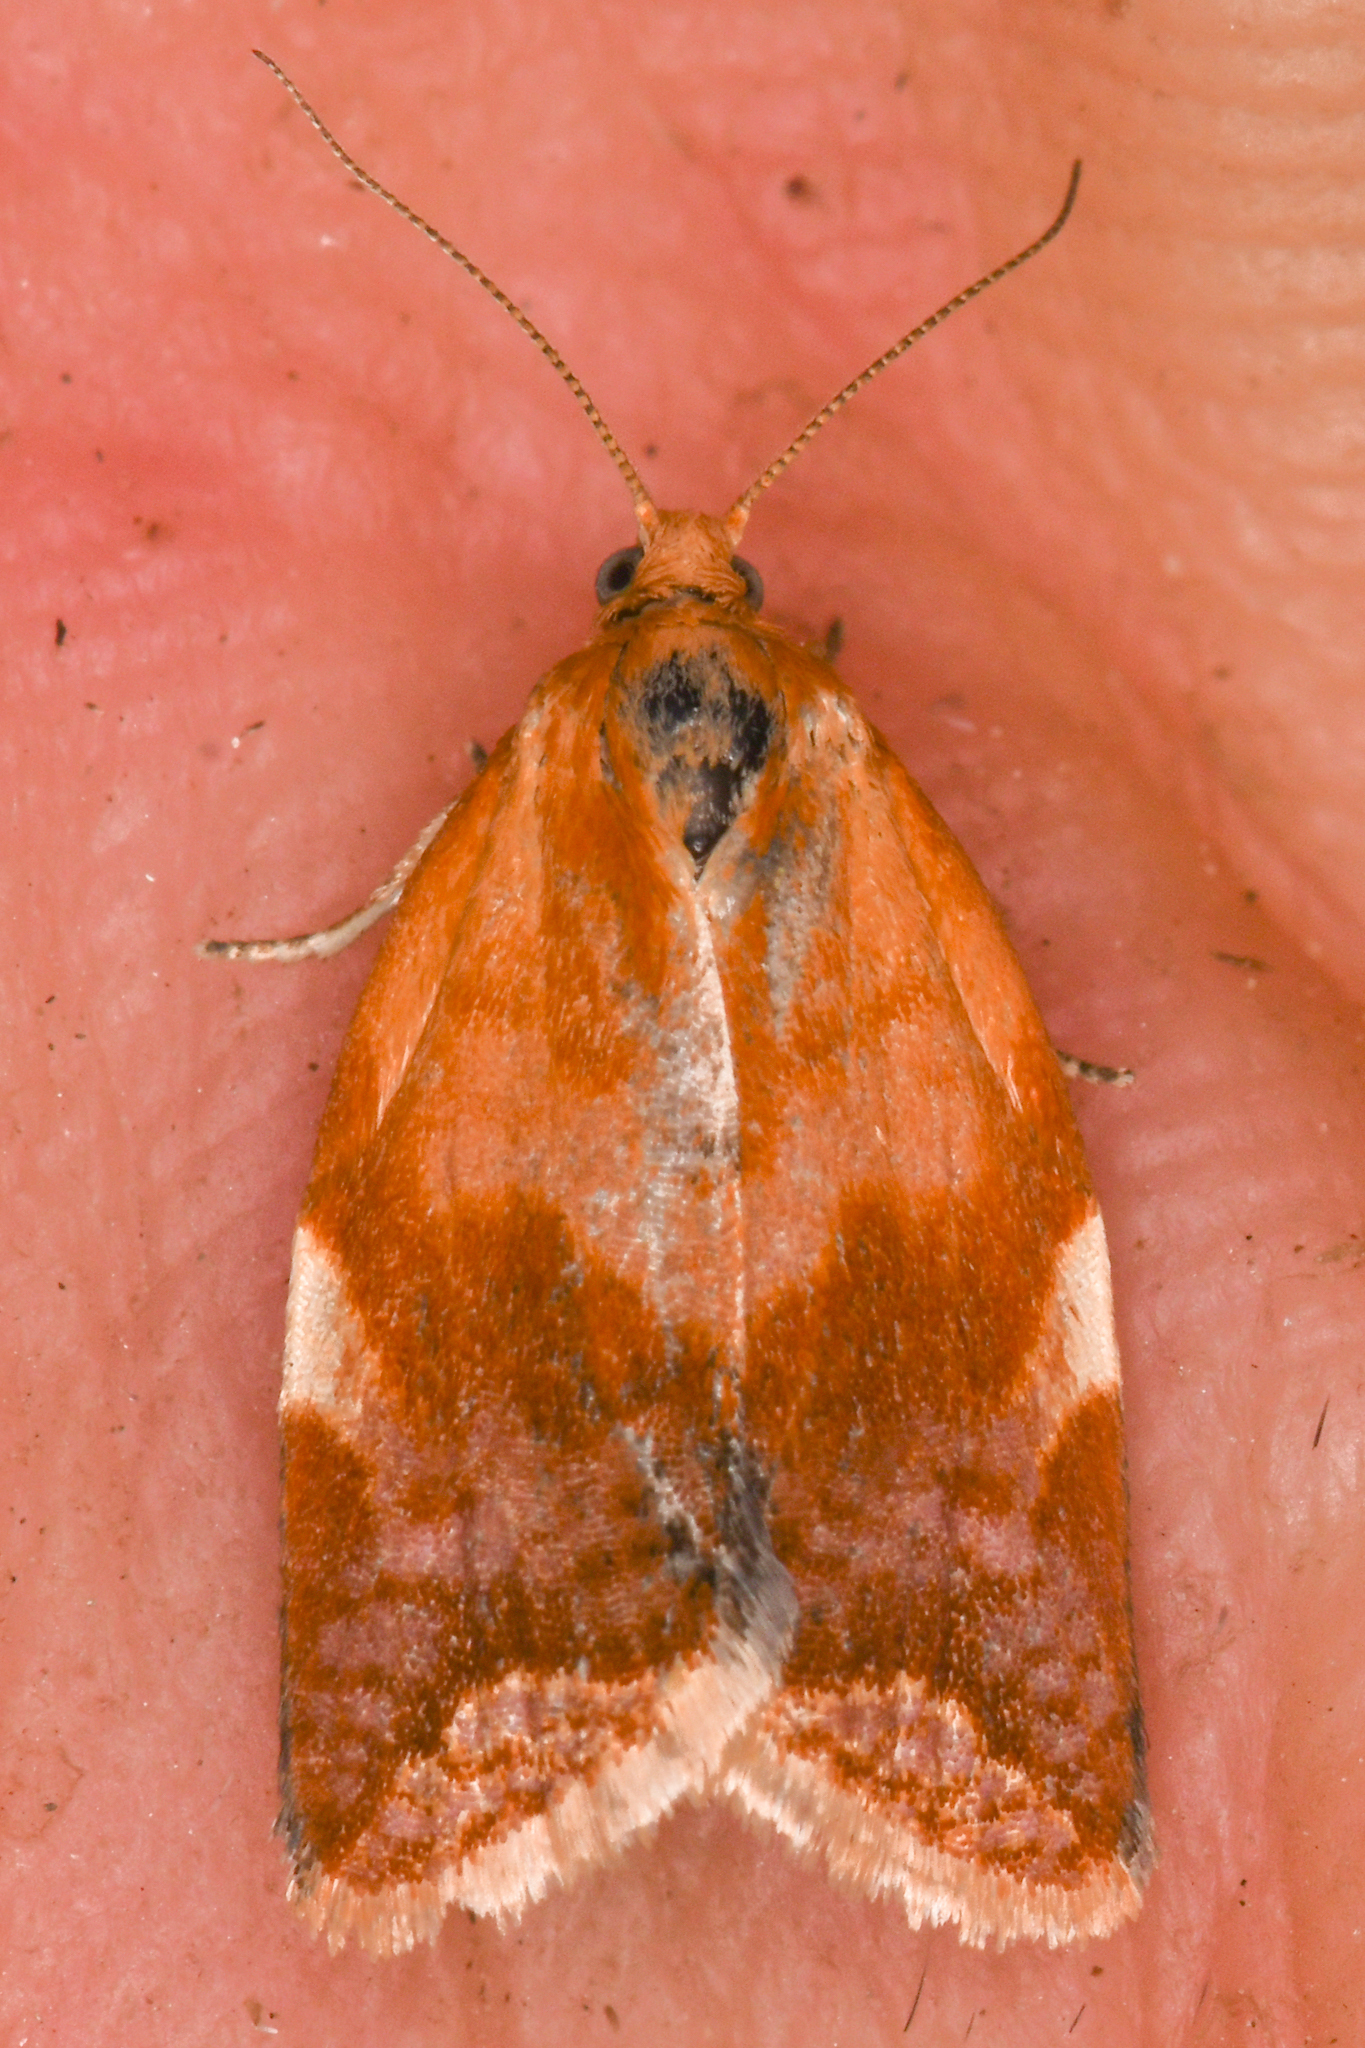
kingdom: Animalia
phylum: Arthropoda
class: Insecta
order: Lepidoptera
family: Tortricidae
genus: Clepsis
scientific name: Clepsis persicana
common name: White triangle tortrix
